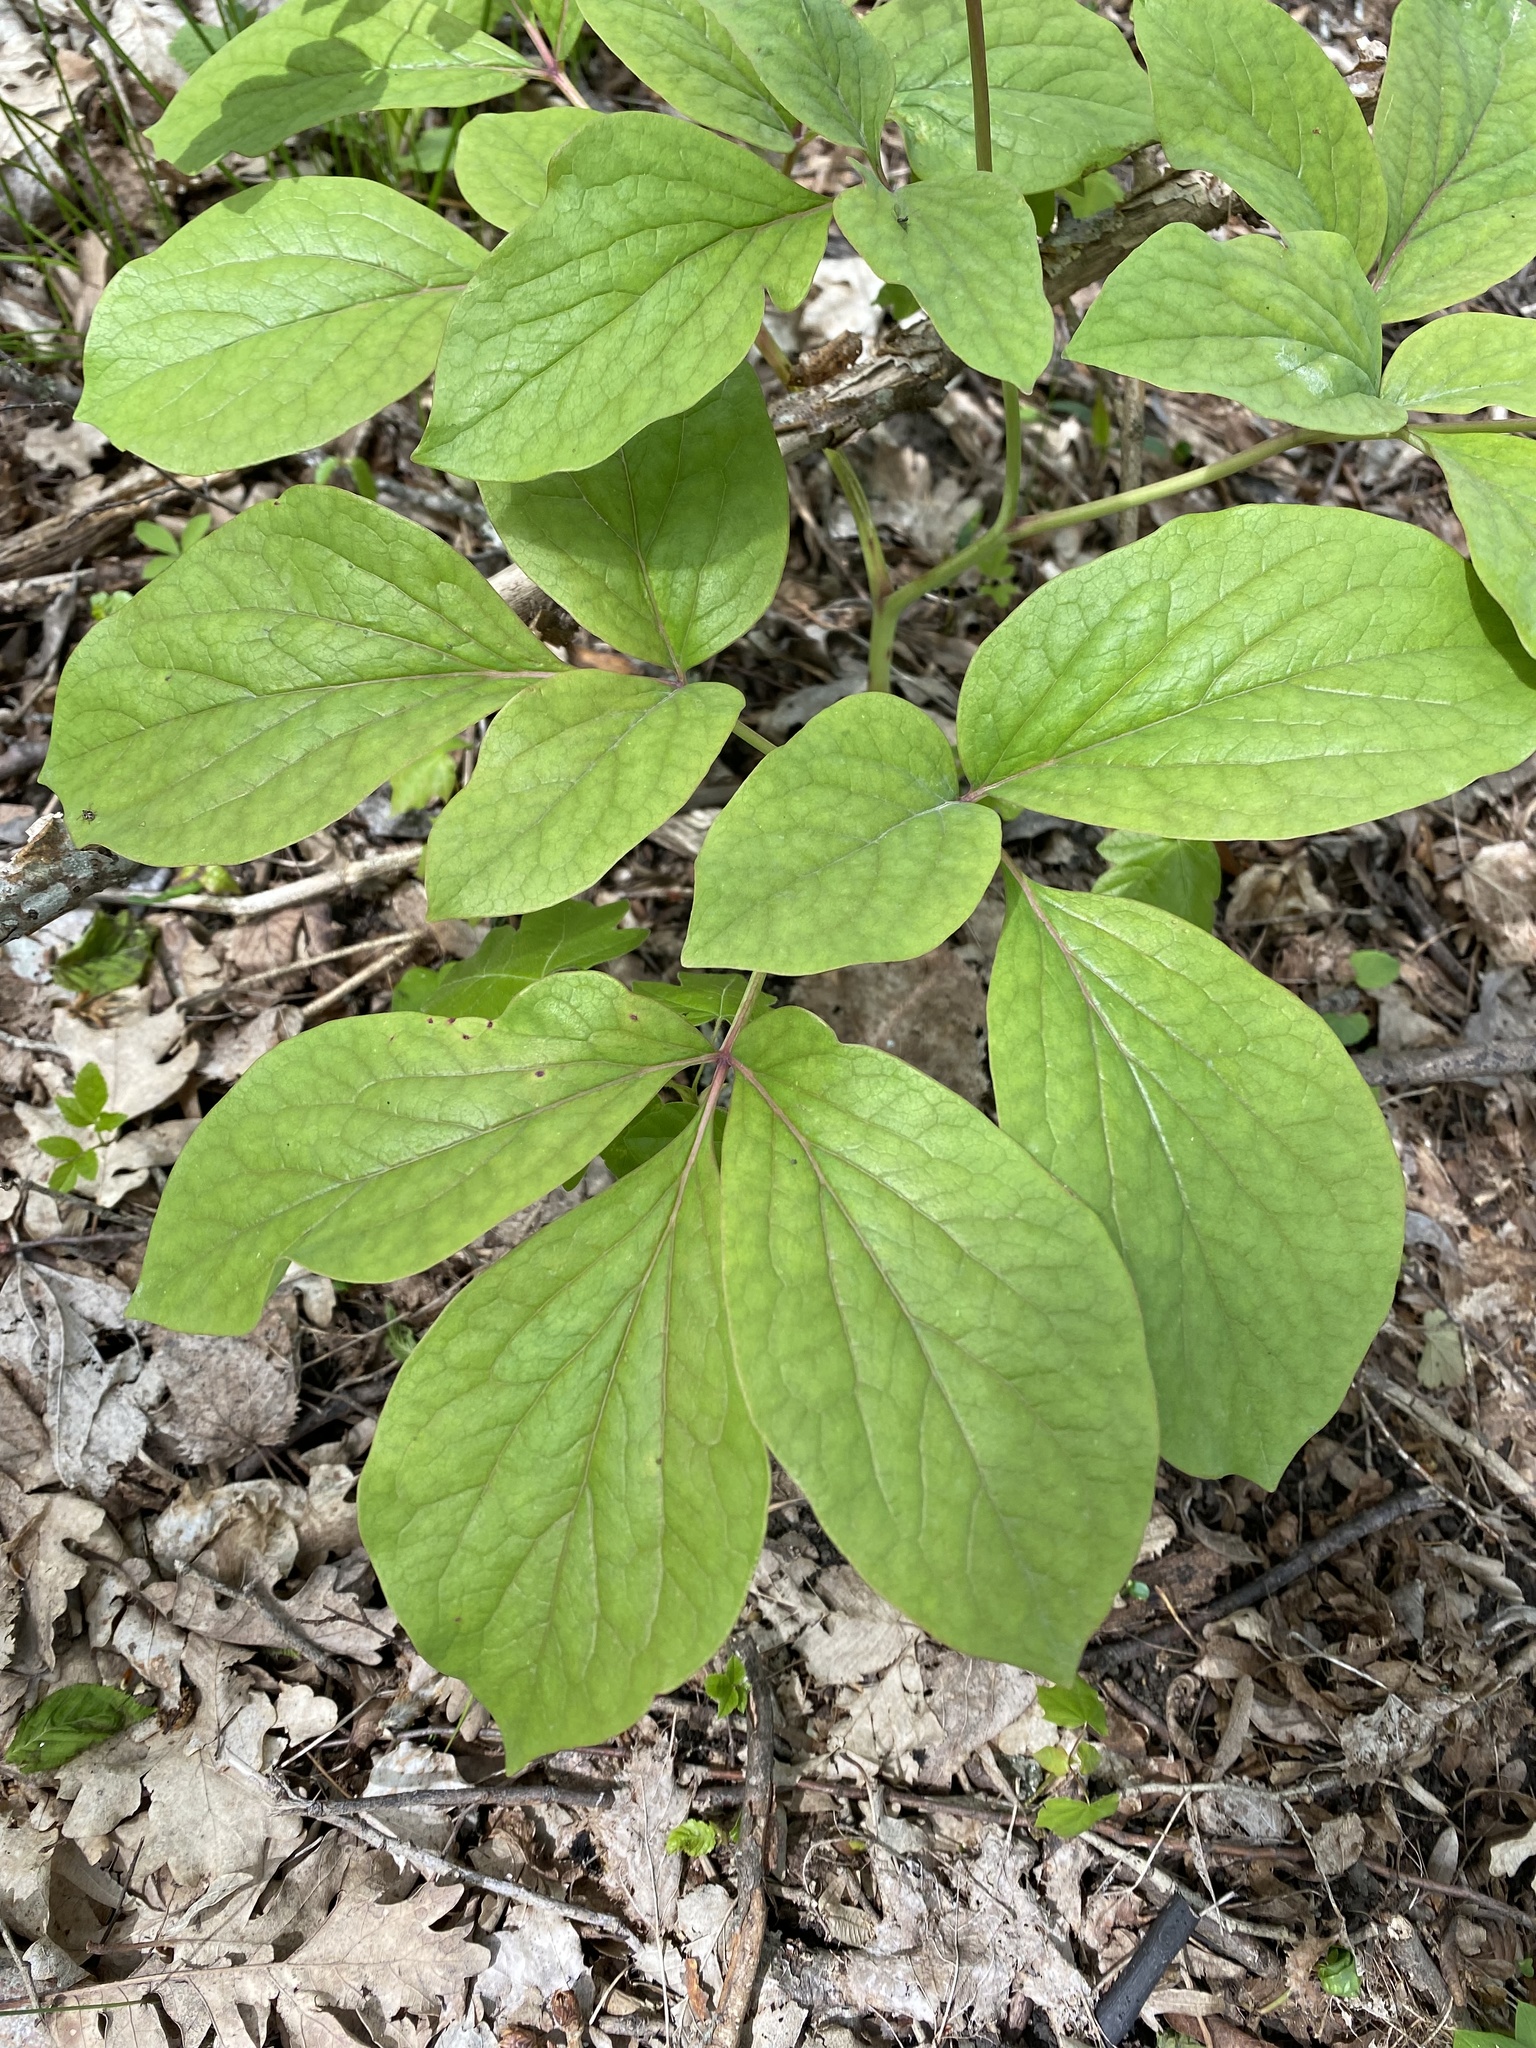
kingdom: Plantae
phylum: Tracheophyta
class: Magnoliopsida
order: Saxifragales
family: Paeoniaceae
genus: Paeonia
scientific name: Paeonia caucasica
